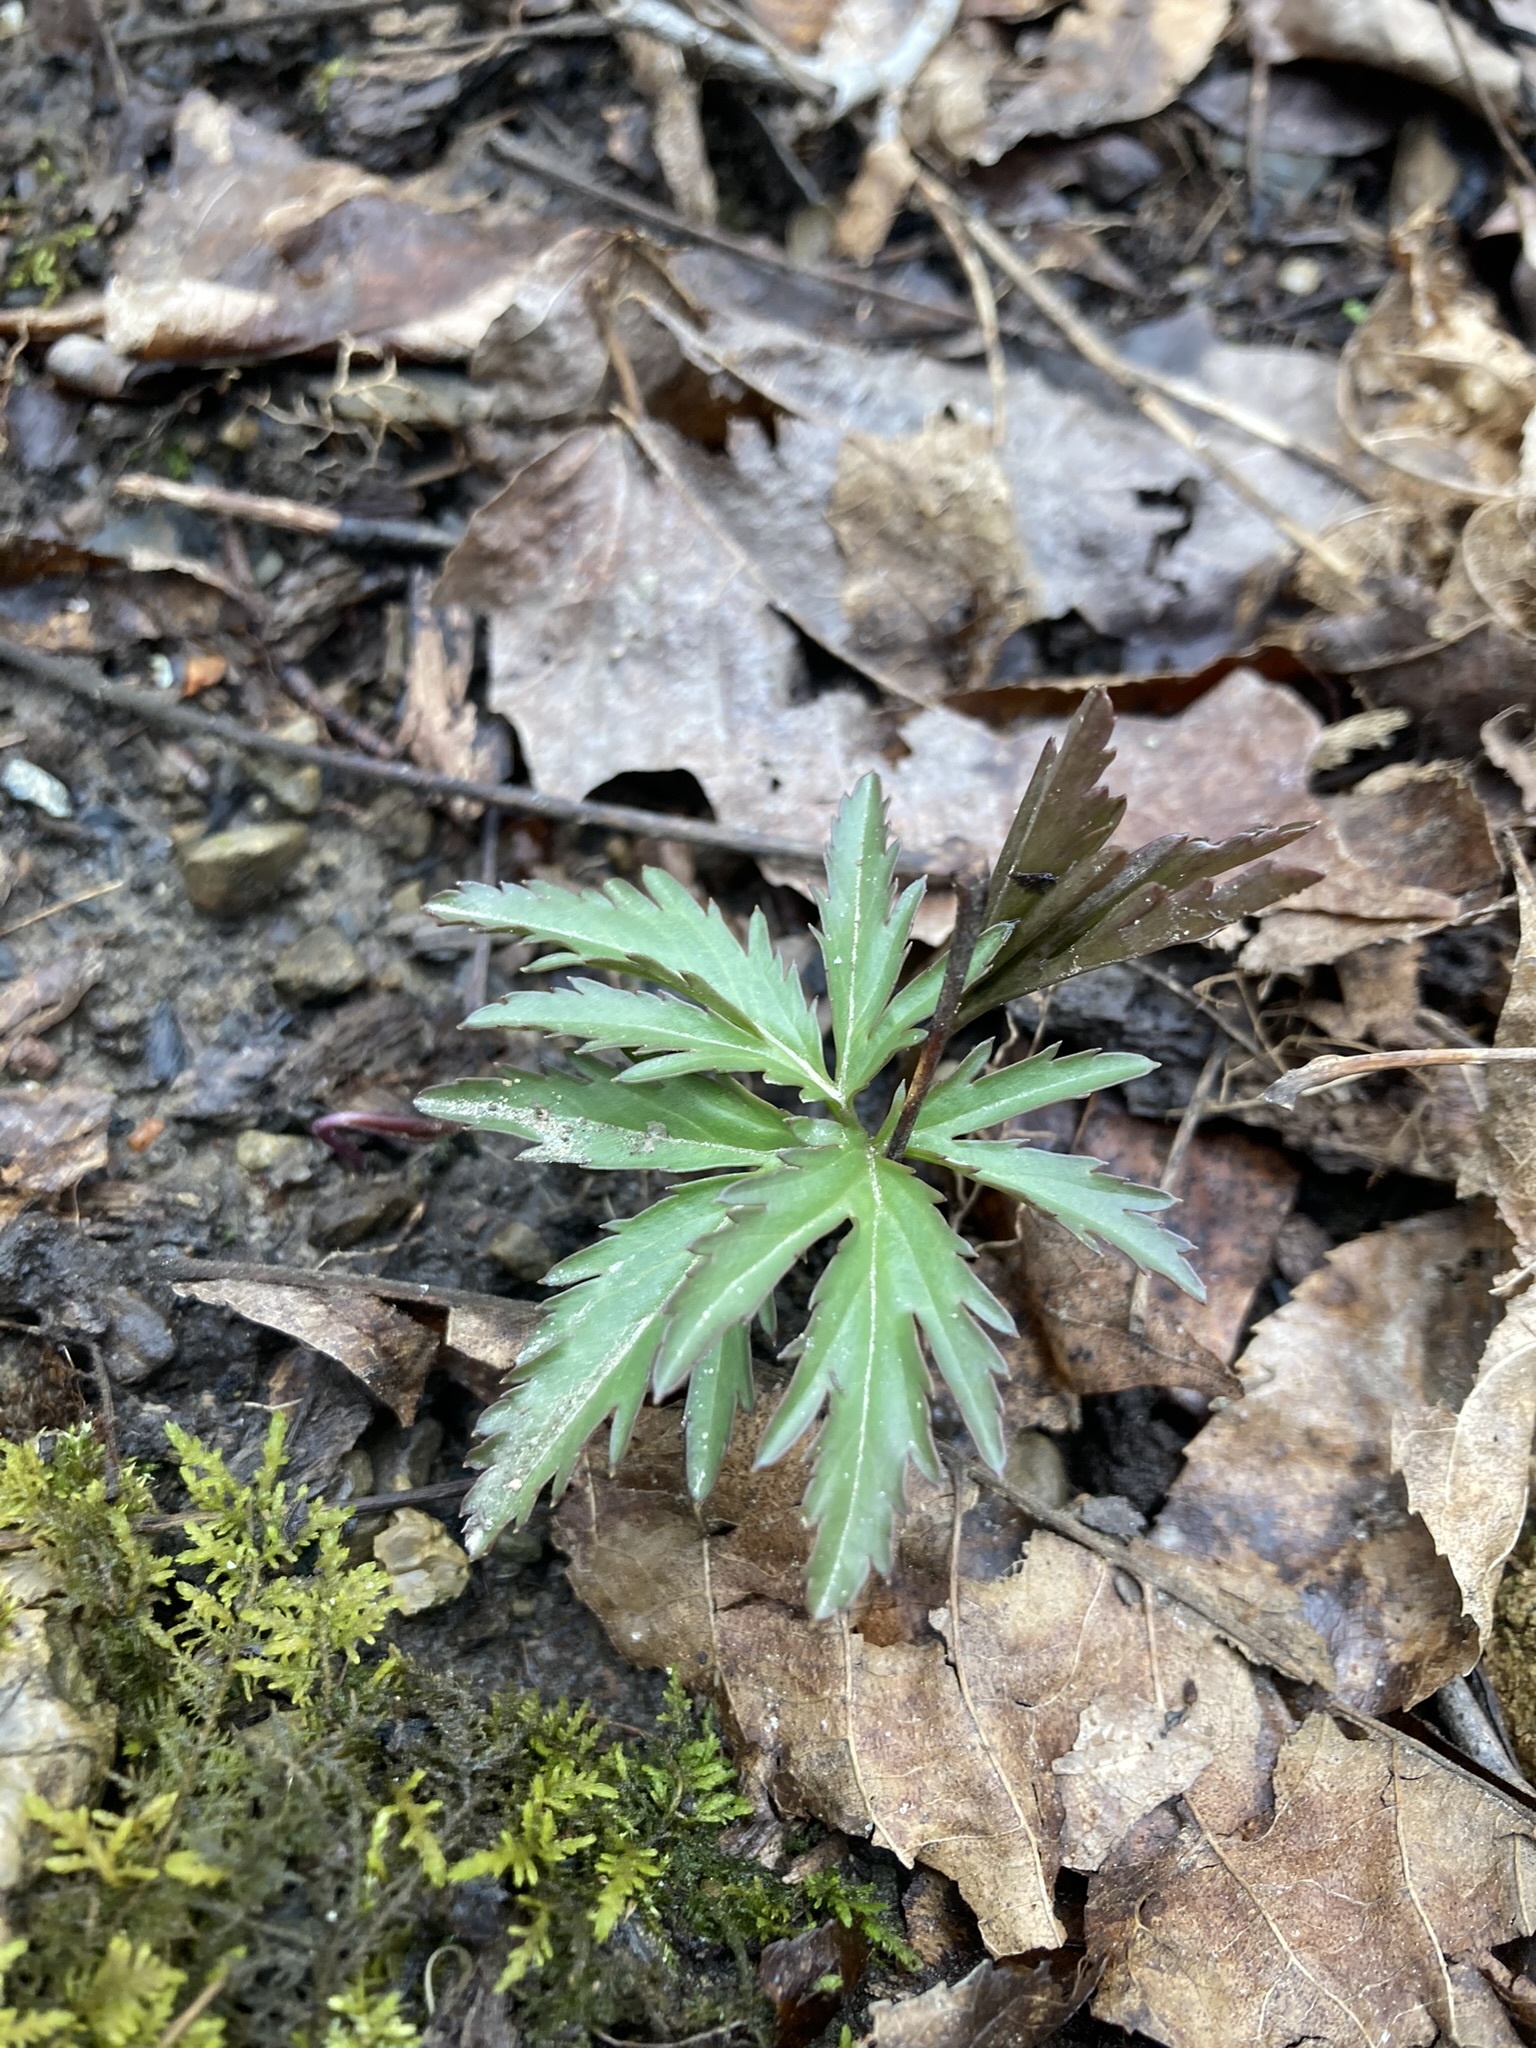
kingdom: Plantae
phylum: Tracheophyta
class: Magnoliopsida
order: Brassicales
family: Brassicaceae
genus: Cardamine
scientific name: Cardamine concatenata
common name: Cut-leaf toothcup
